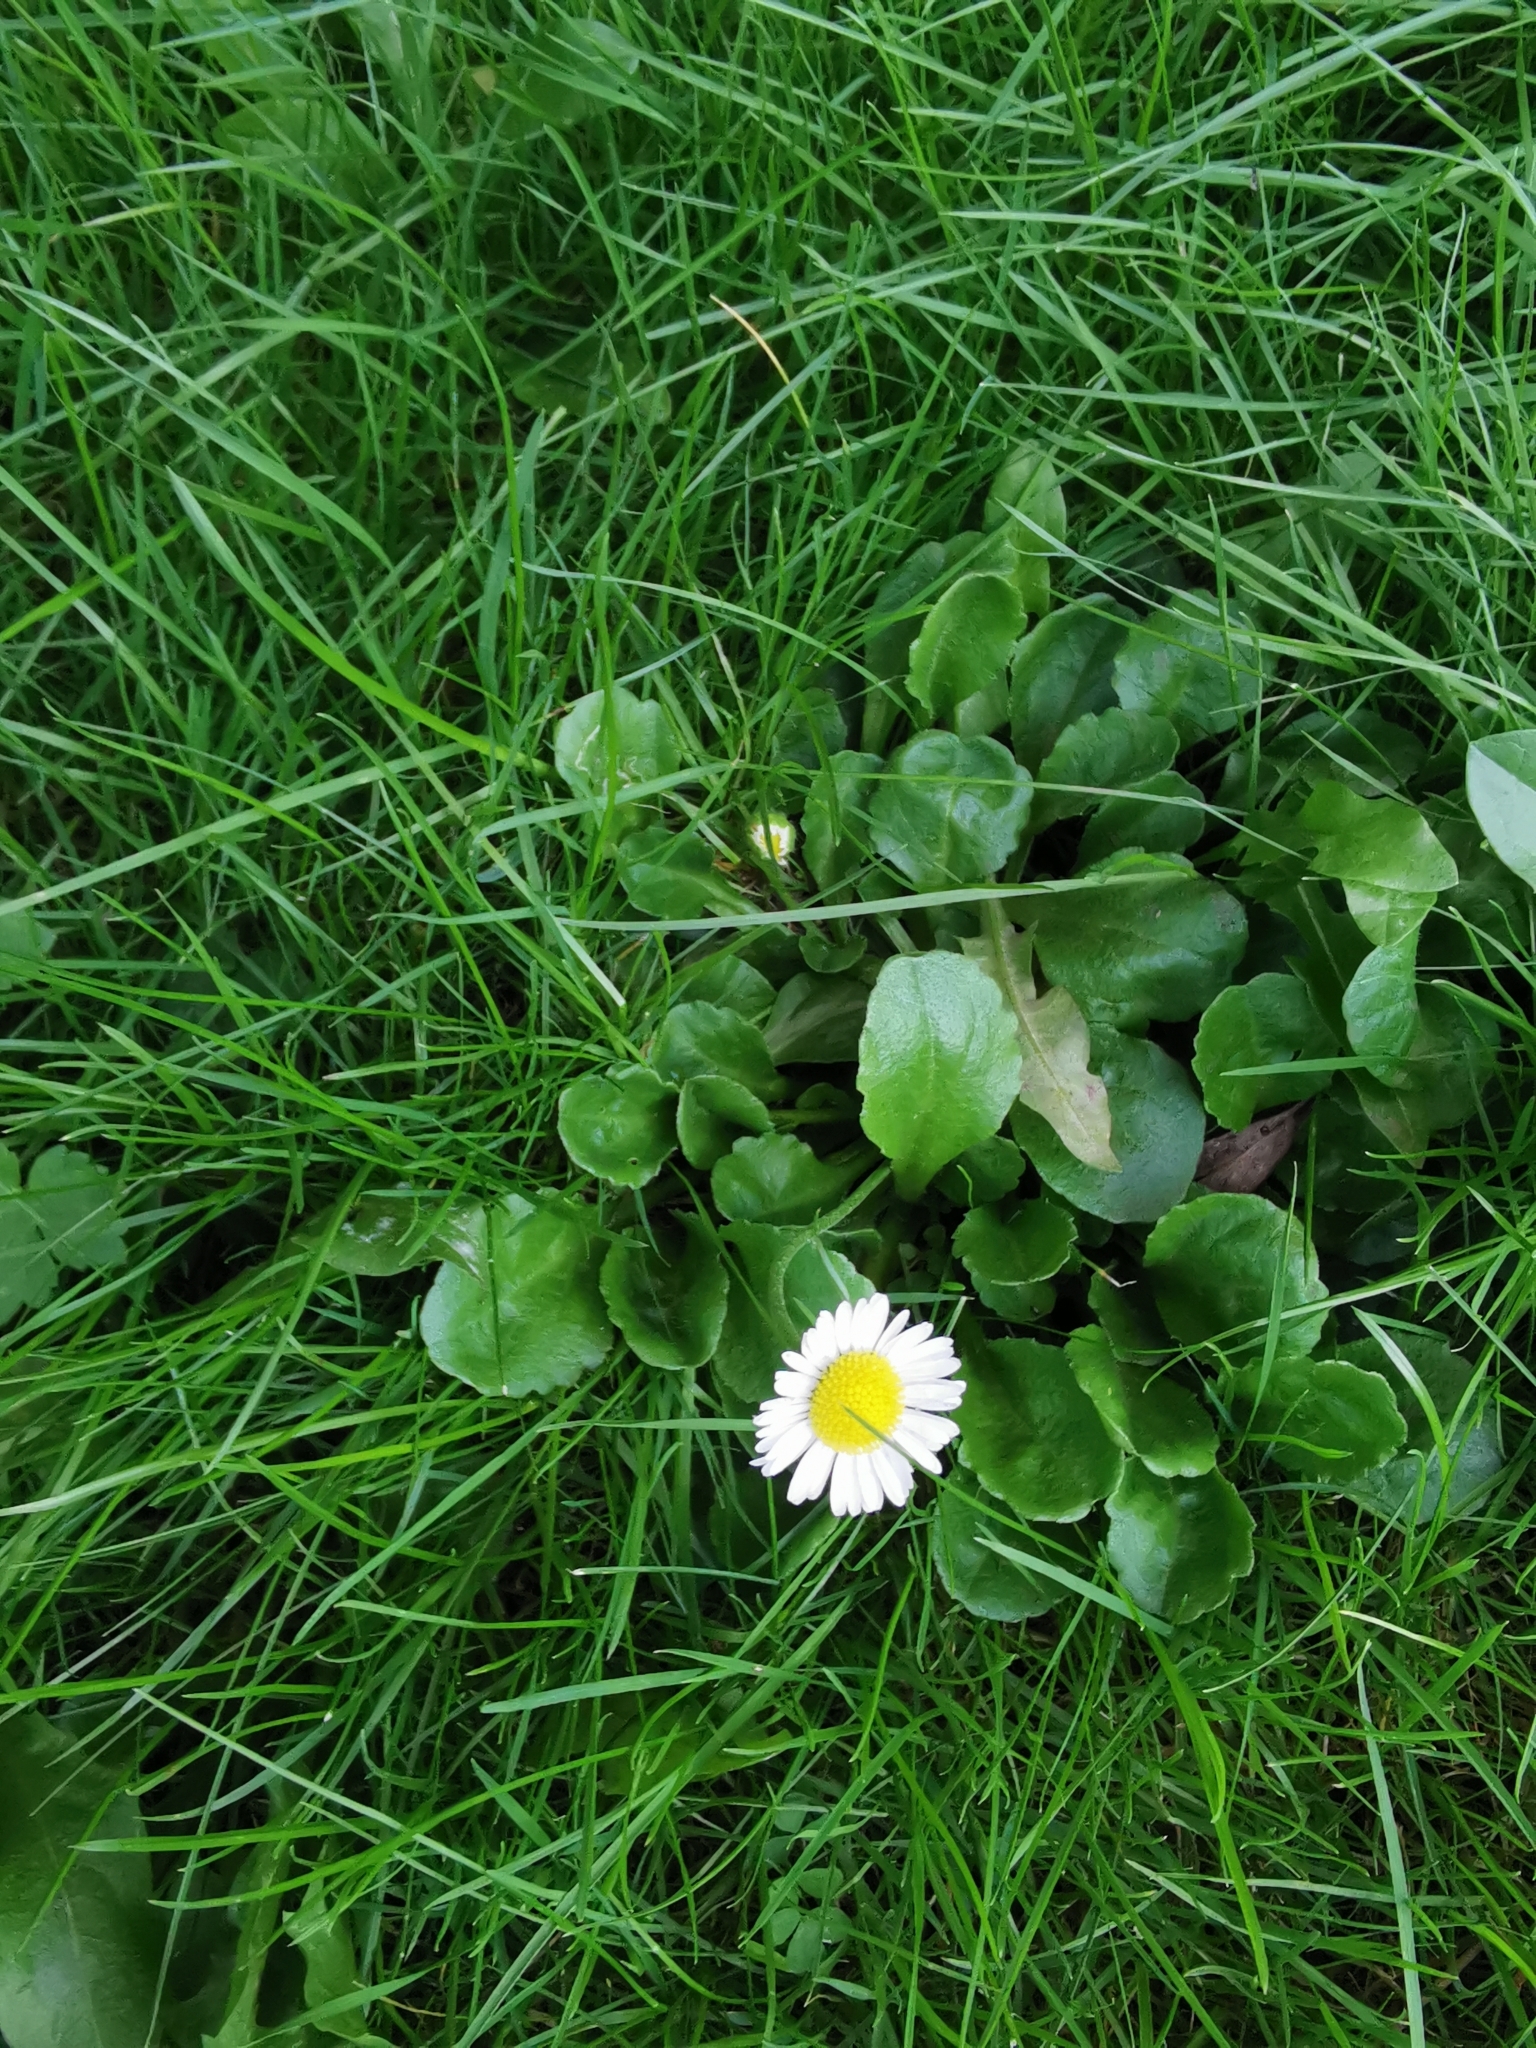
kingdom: Plantae
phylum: Tracheophyta
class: Magnoliopsida
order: Asterales
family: Asteraceae
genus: Bellis
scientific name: Bellis perennis
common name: Lawndaisy
